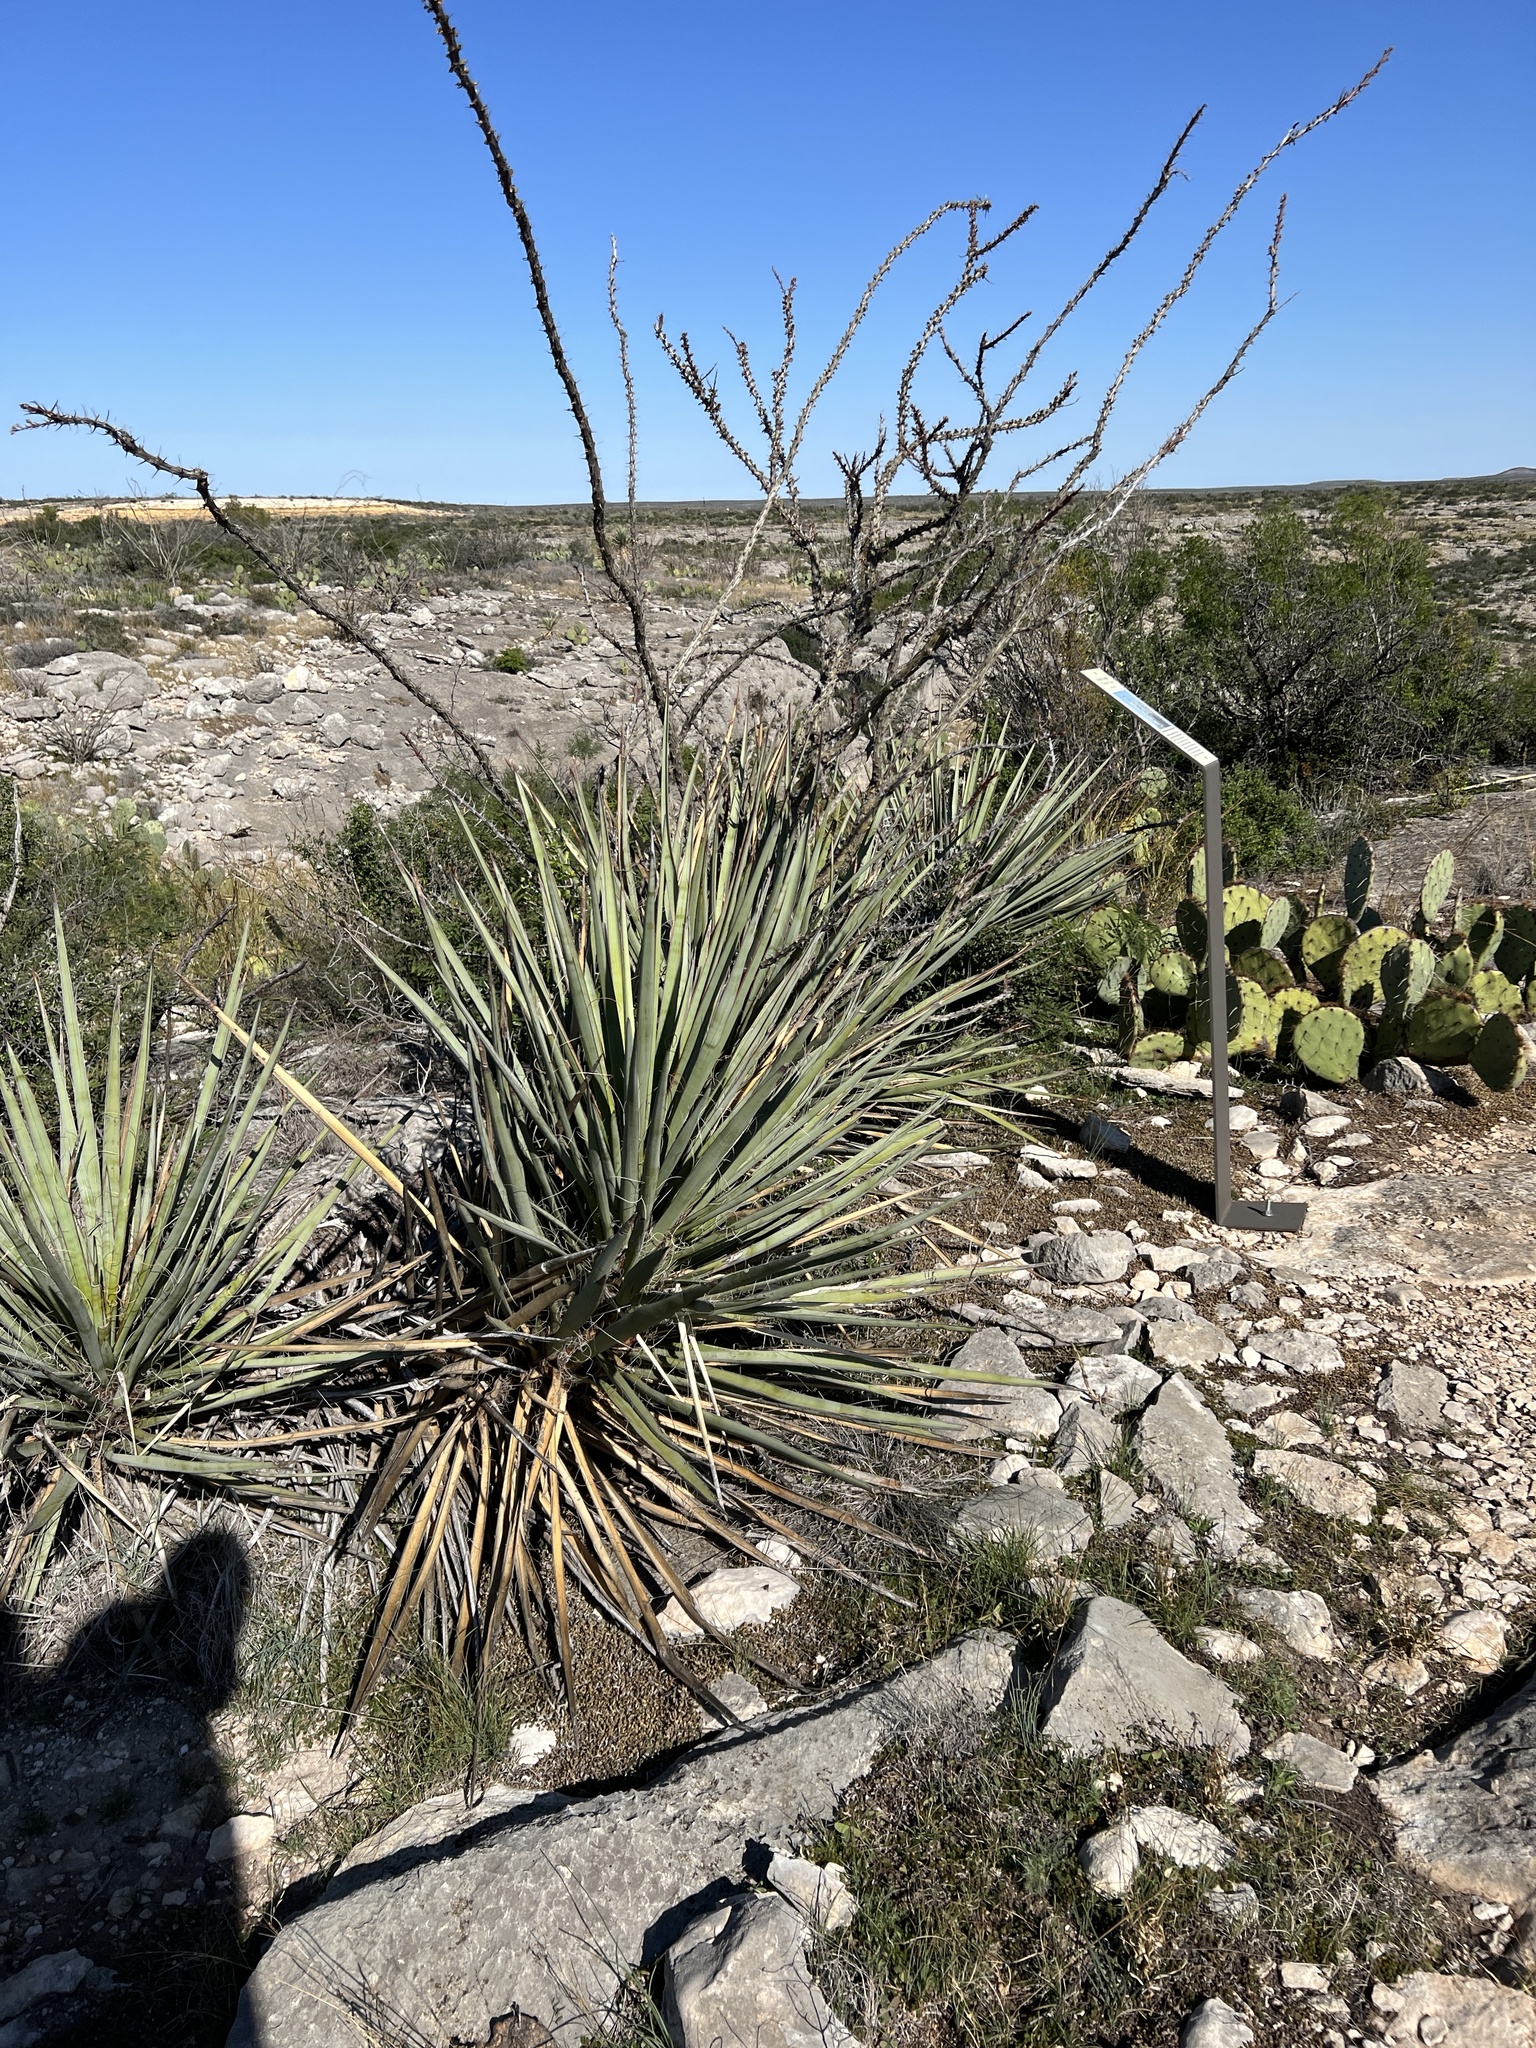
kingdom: Plantae
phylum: Tracheophyta
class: Liliopsida
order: Asparagales
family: Asparagaceae
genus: Yucca
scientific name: Yucca treculiana
